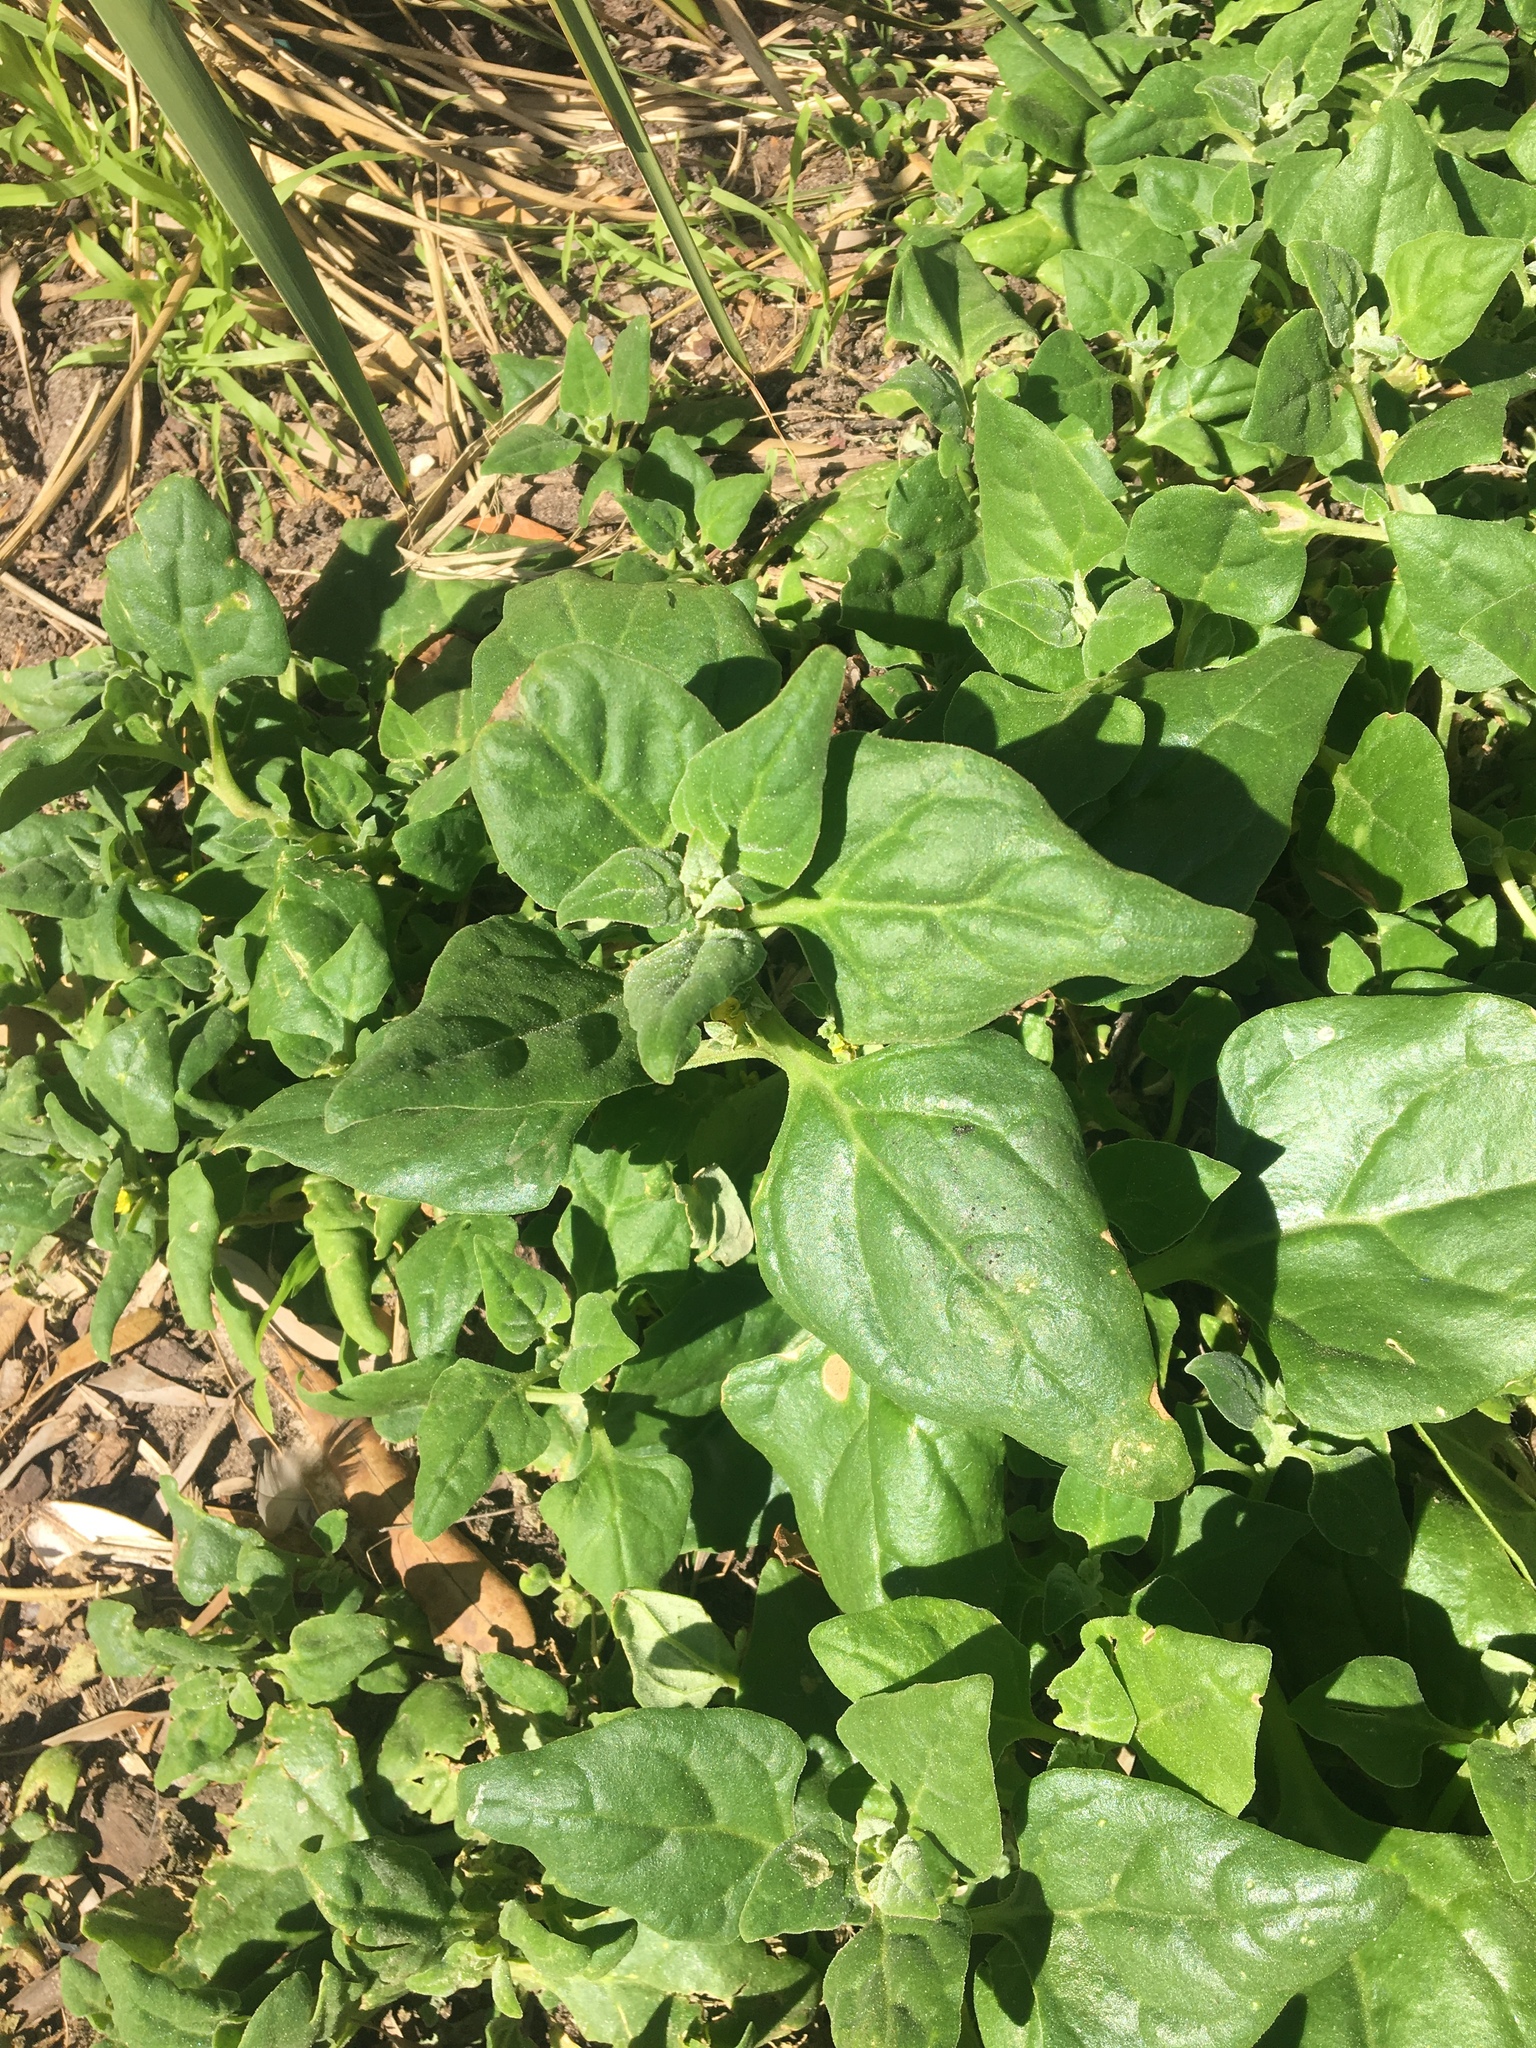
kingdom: Plantae
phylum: Tracheophyta
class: Magnoliopsida
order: Caryophyllales
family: Aizoaceae
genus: Tetragonia
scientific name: Tetragonia tetragonoides
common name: New zealand-spinach
